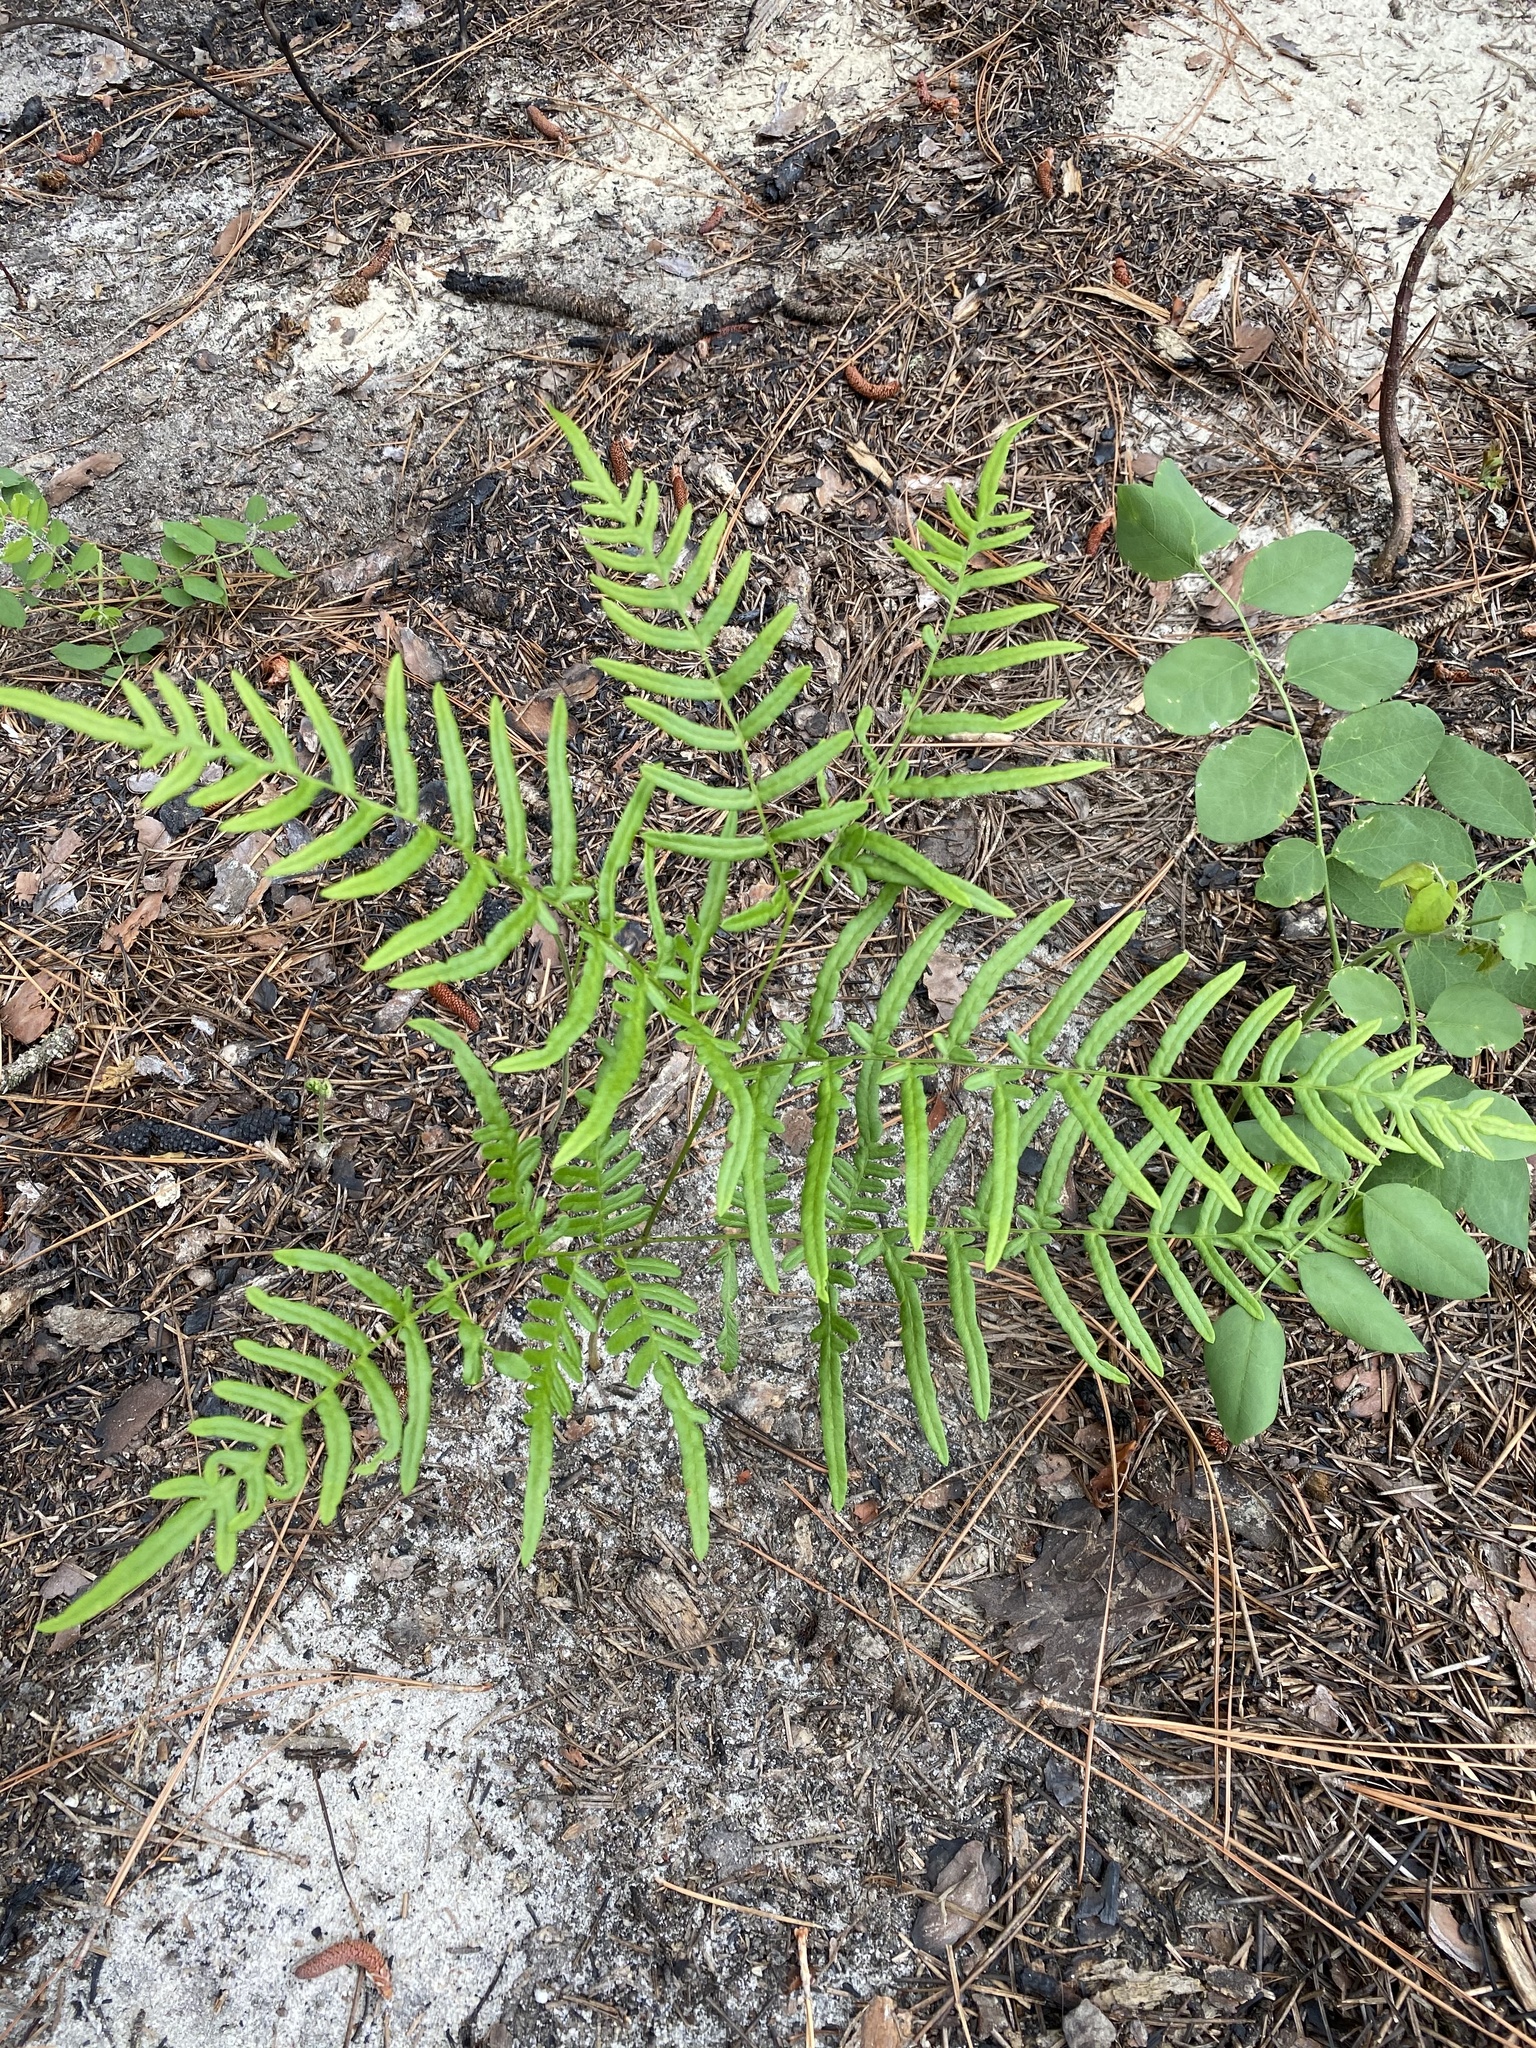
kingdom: Plantae
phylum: Tracheophyta
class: Polypodiopsida
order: Polypodiales
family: Dennstaedtiaceae
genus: Pteridium
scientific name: Pteridium aquilinum
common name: Bracken
